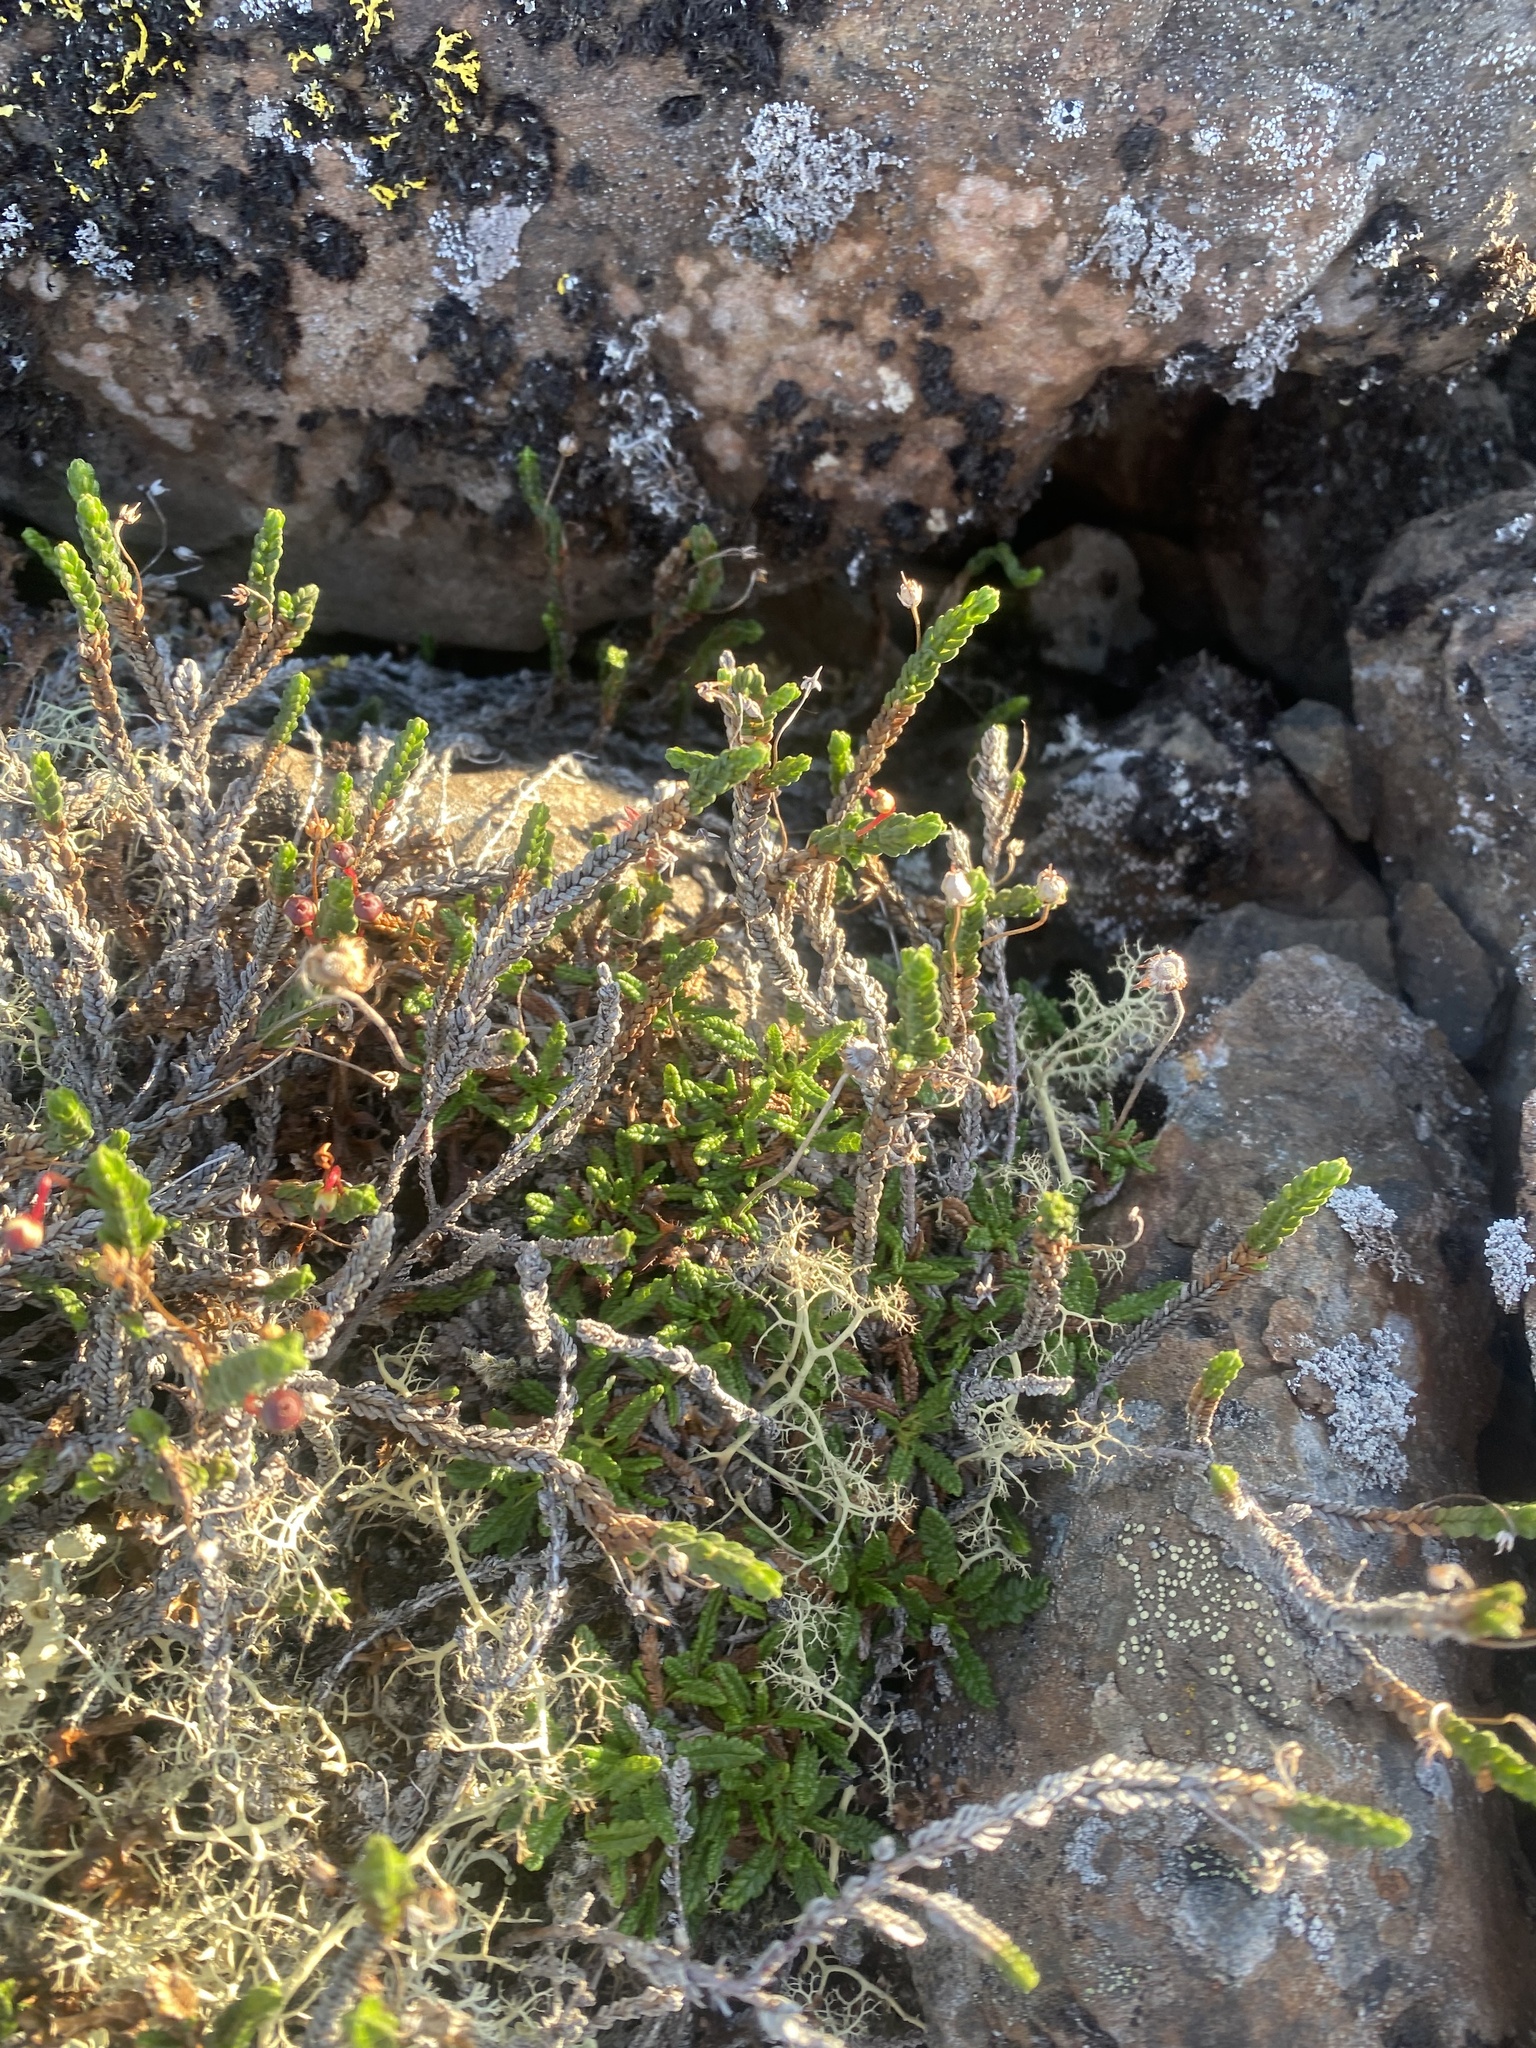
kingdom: Plantae
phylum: Tracheophyta
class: Magnoliopsida
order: Ericales
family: Ericaceae
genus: Cassiope
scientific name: Cassiope tetragona
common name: Arctic bell heather
